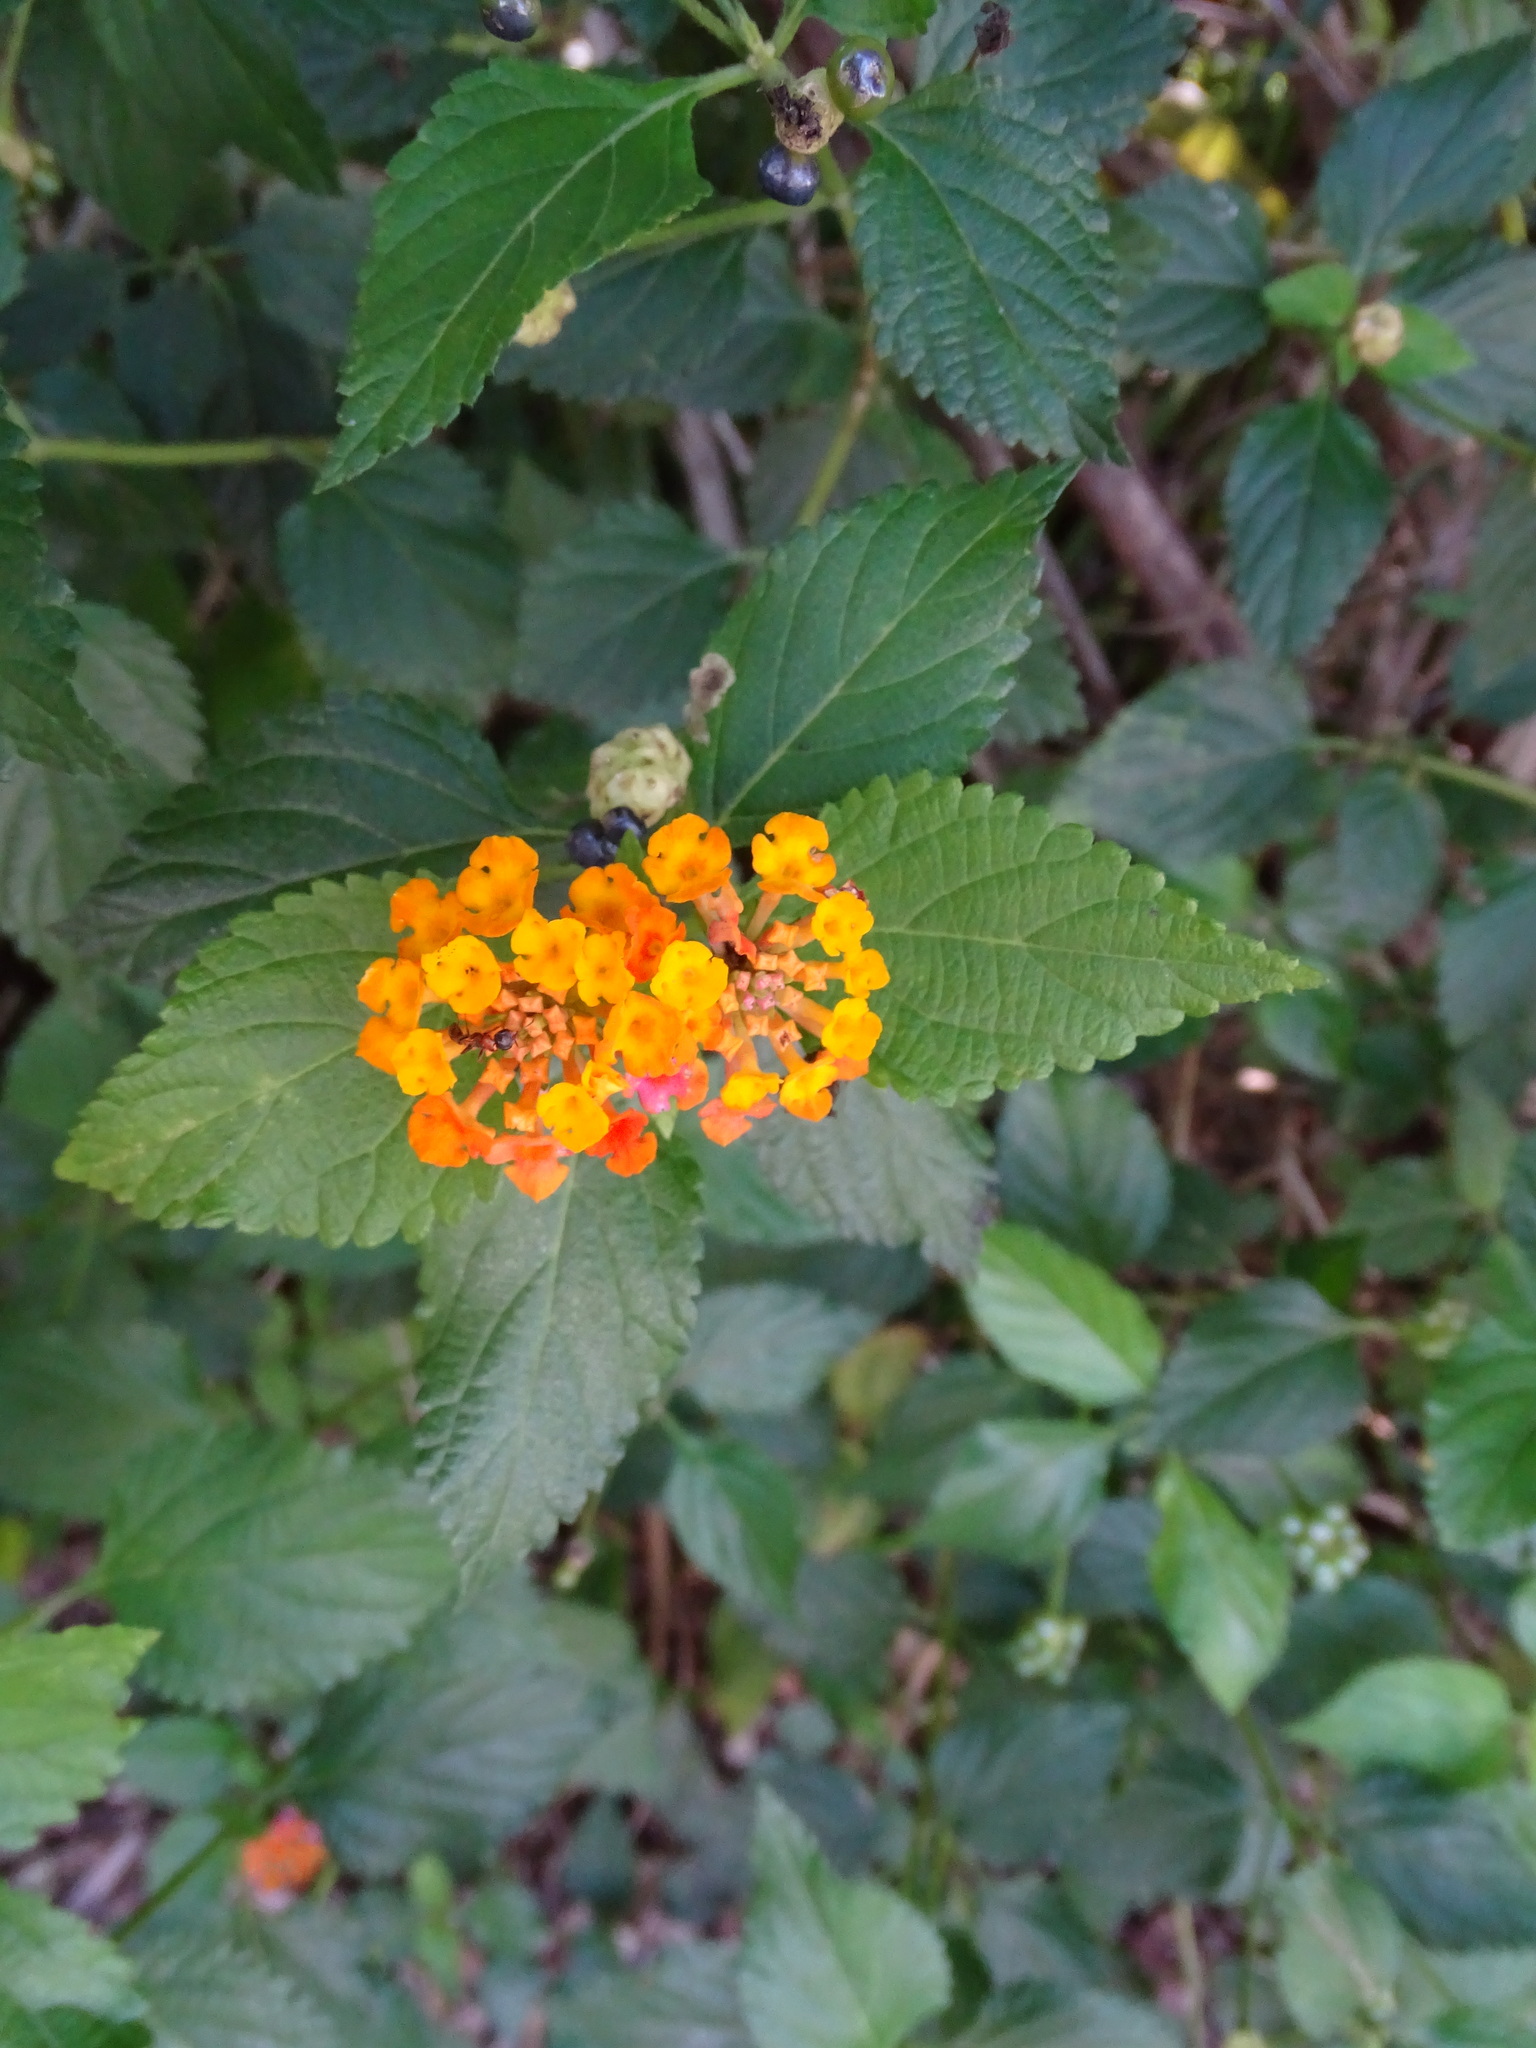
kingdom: Plantae
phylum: Tracheophyta
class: Magnoliopsida
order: Lamiales
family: Verbenaceae
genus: Lantana
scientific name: Lantana camara
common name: Lantana
